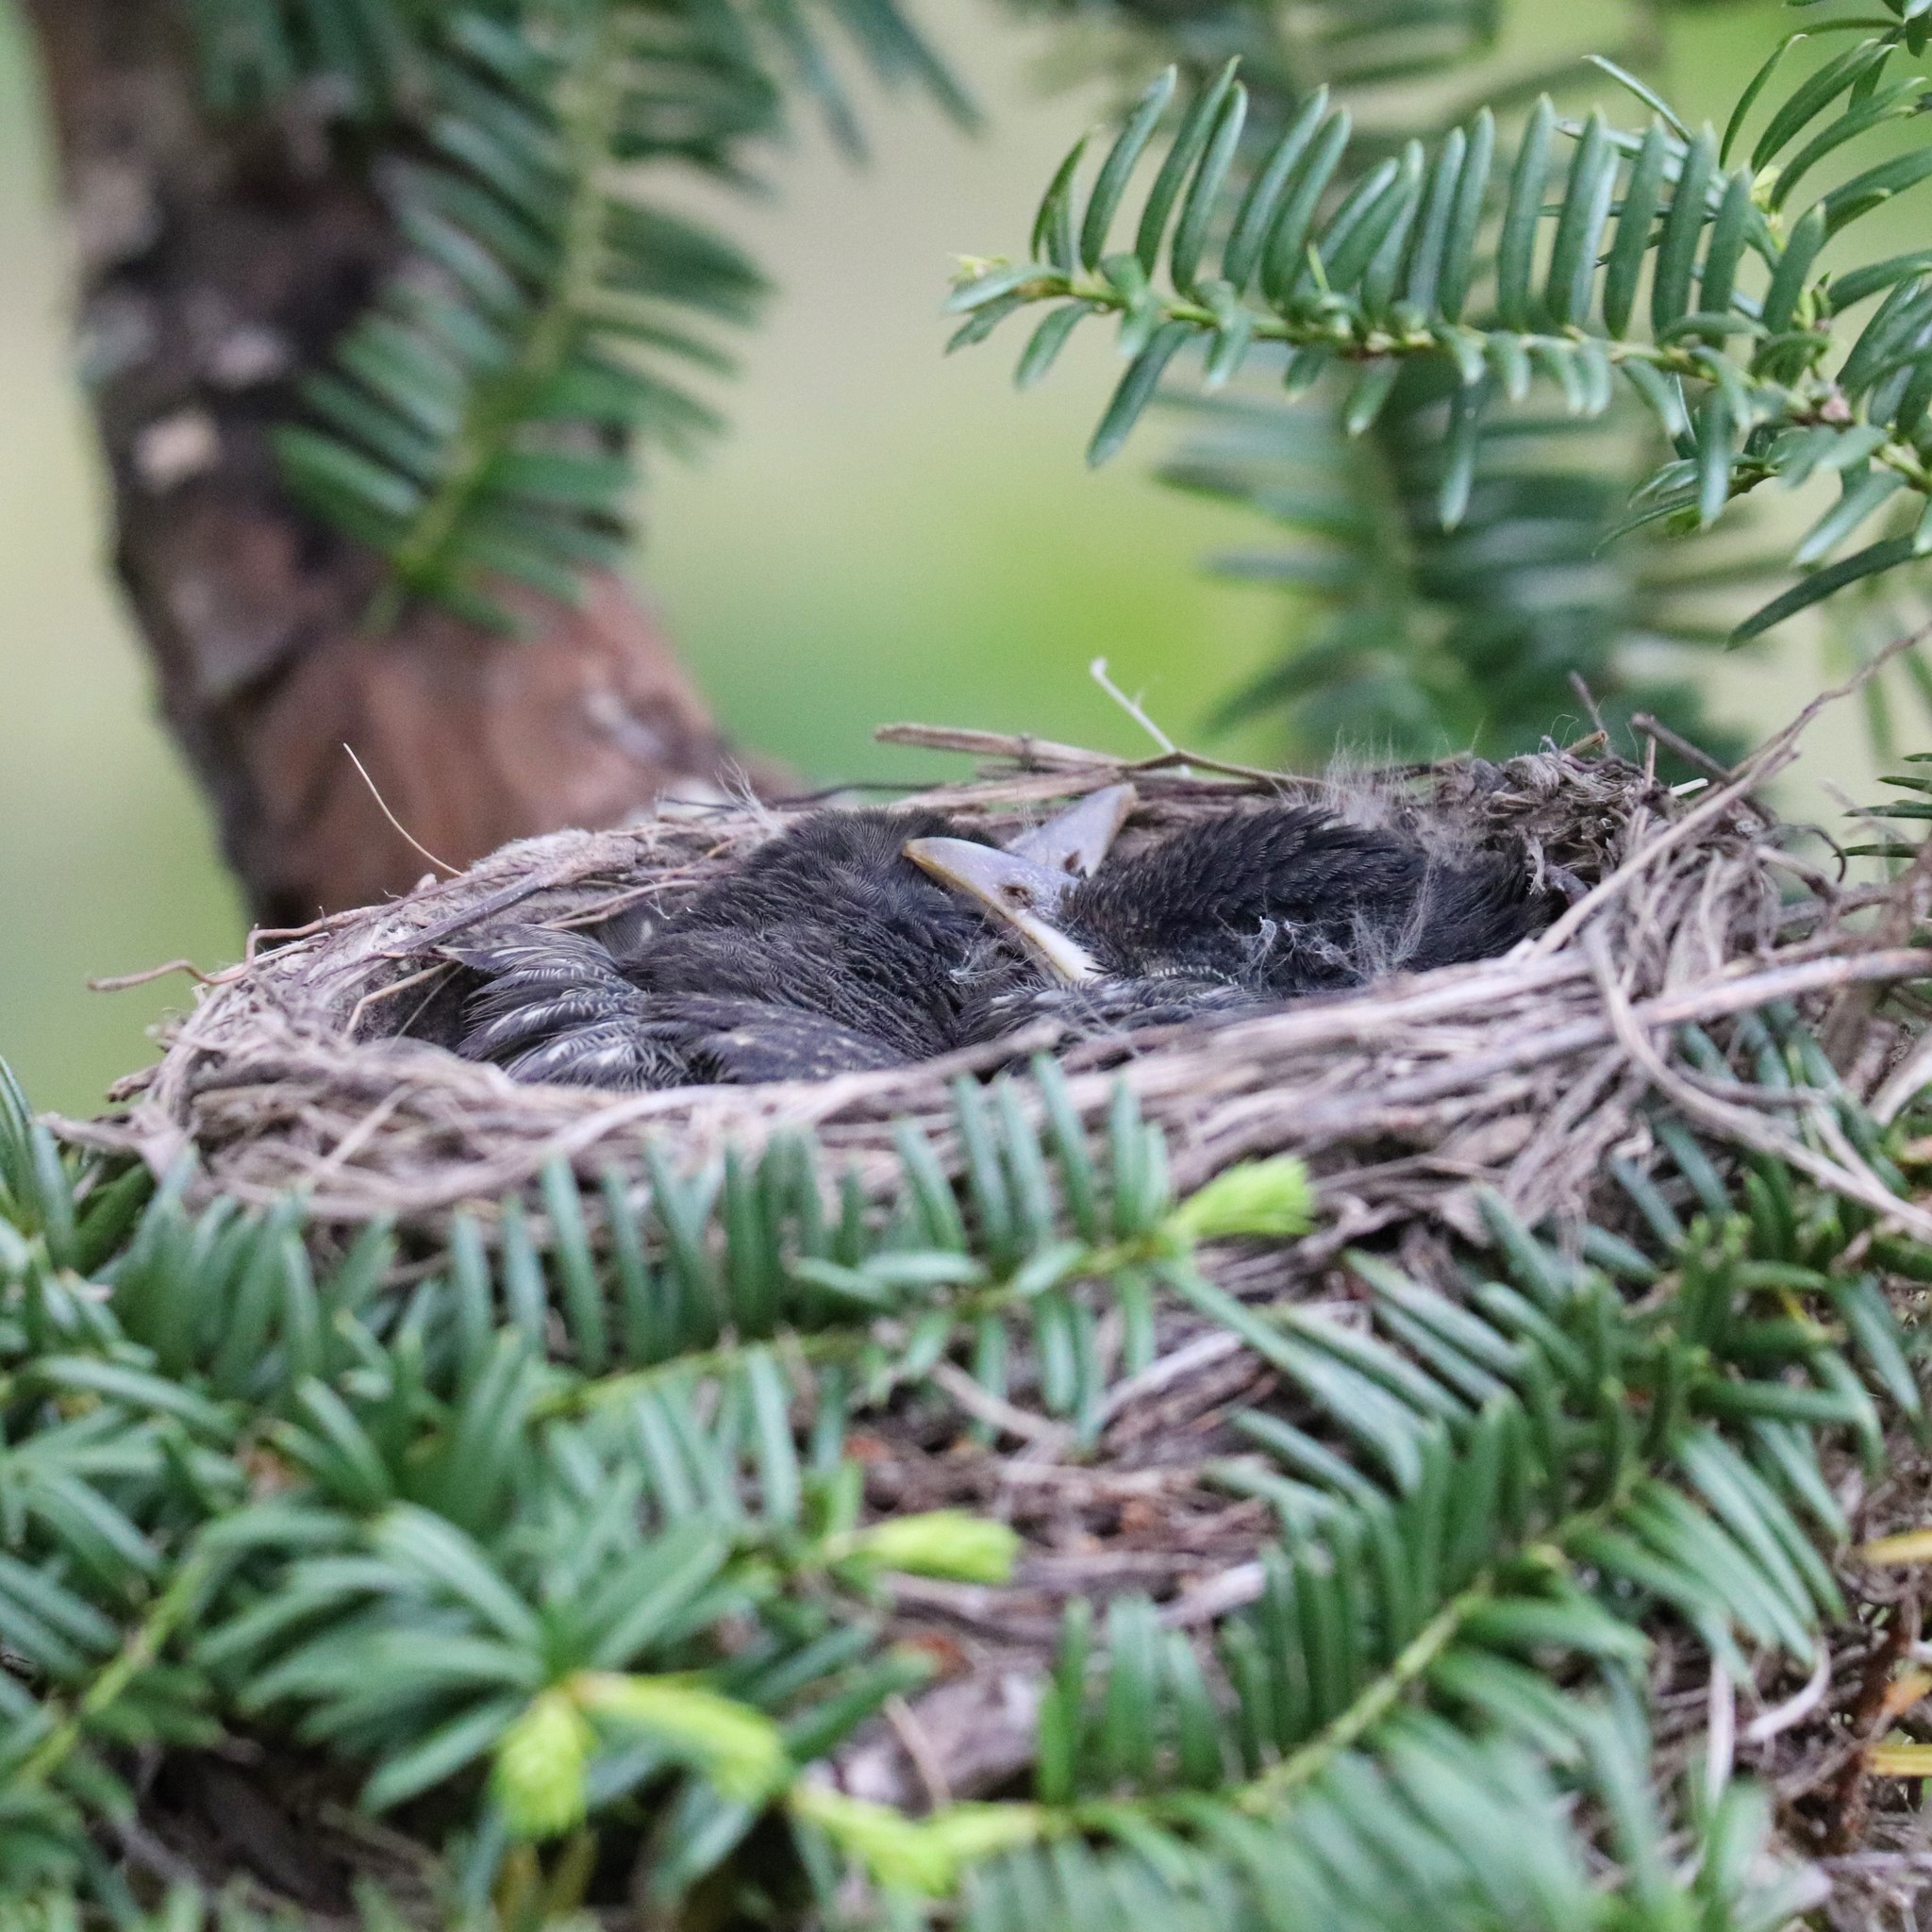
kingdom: Animalia
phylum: Chordata
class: Aves
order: Passeriformes
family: Turdidae
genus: Turdus
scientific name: Turdus migratorius
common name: American robin
